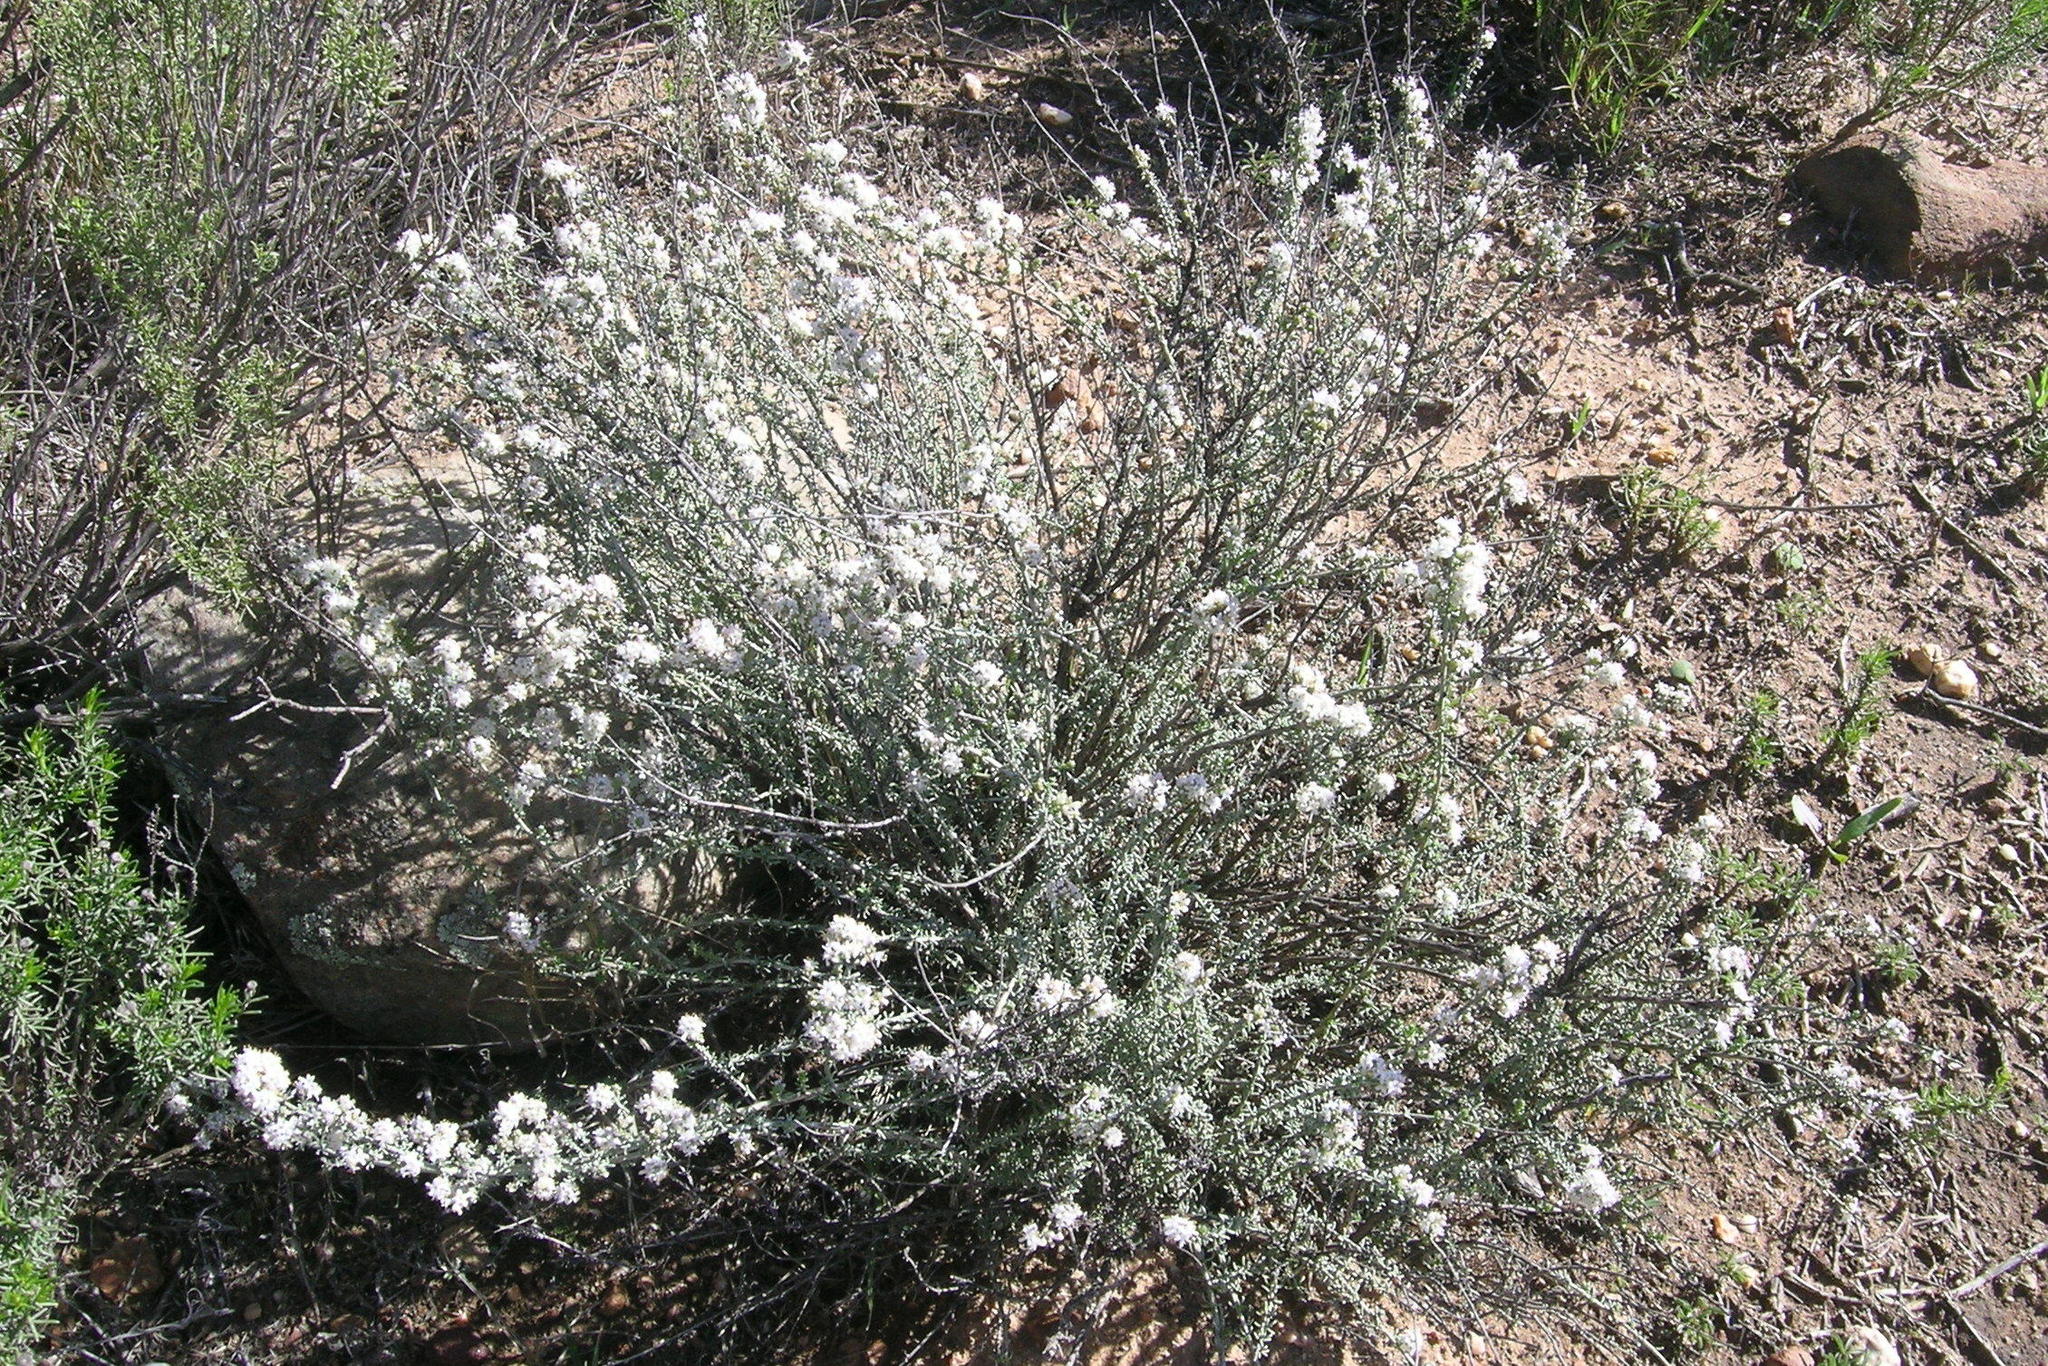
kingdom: Plantae
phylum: Tracheophyta
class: Magnoliopsida
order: Lamiales
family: Scrophulariaceae
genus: Selago
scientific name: Selago acocksii
